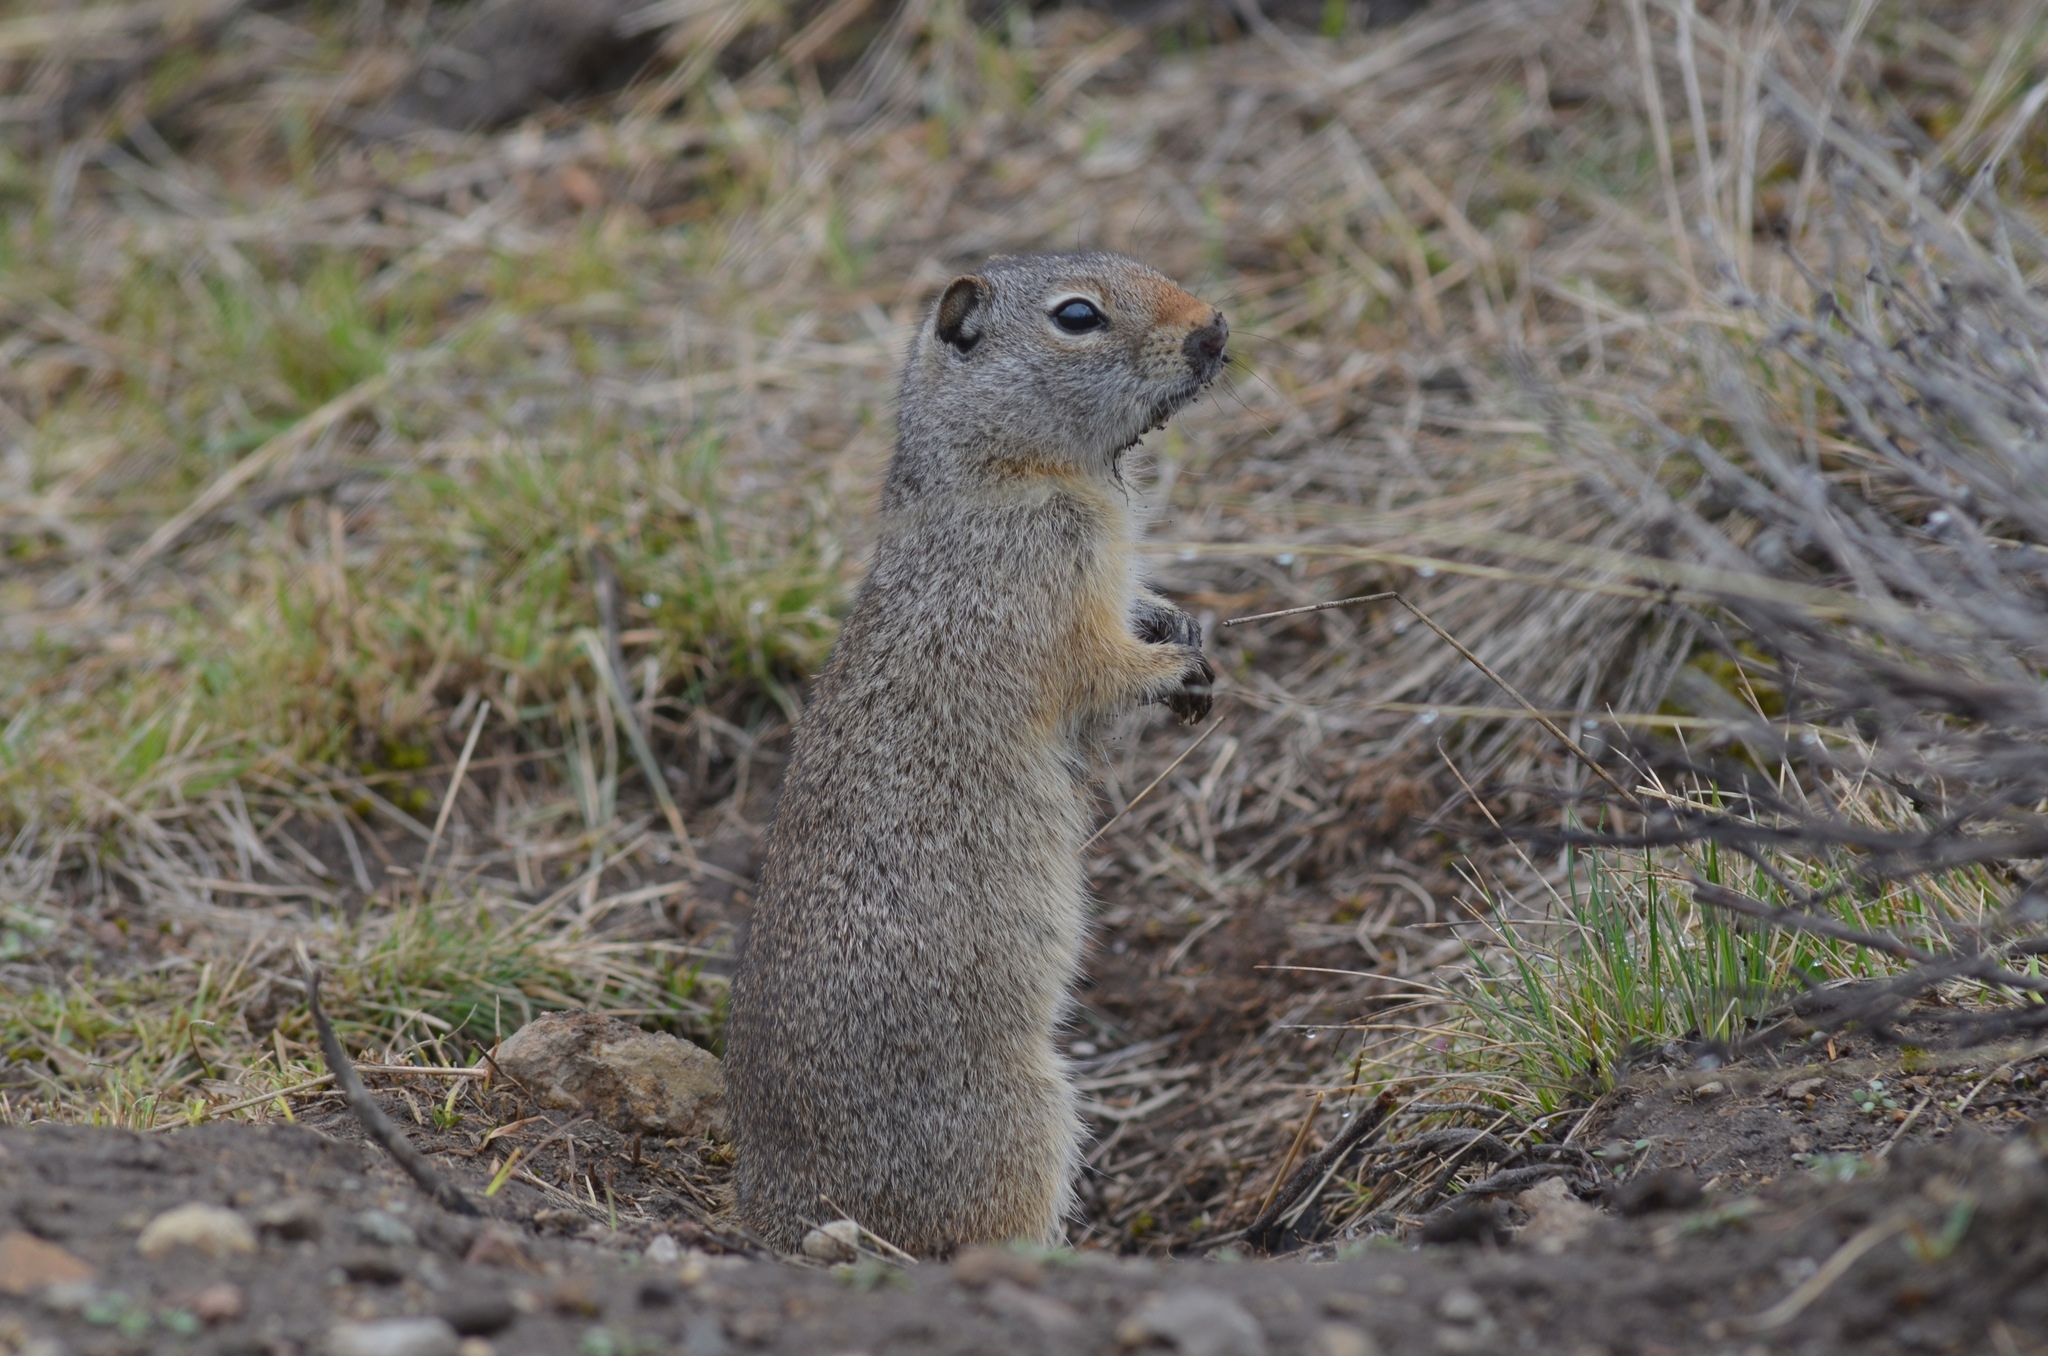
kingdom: Animalia
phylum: Chordata
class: Mammalia
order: Rodentia
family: Sciuridae
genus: Urocitellus
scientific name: Urocitellus armatus
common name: Uinta ground squirrel
